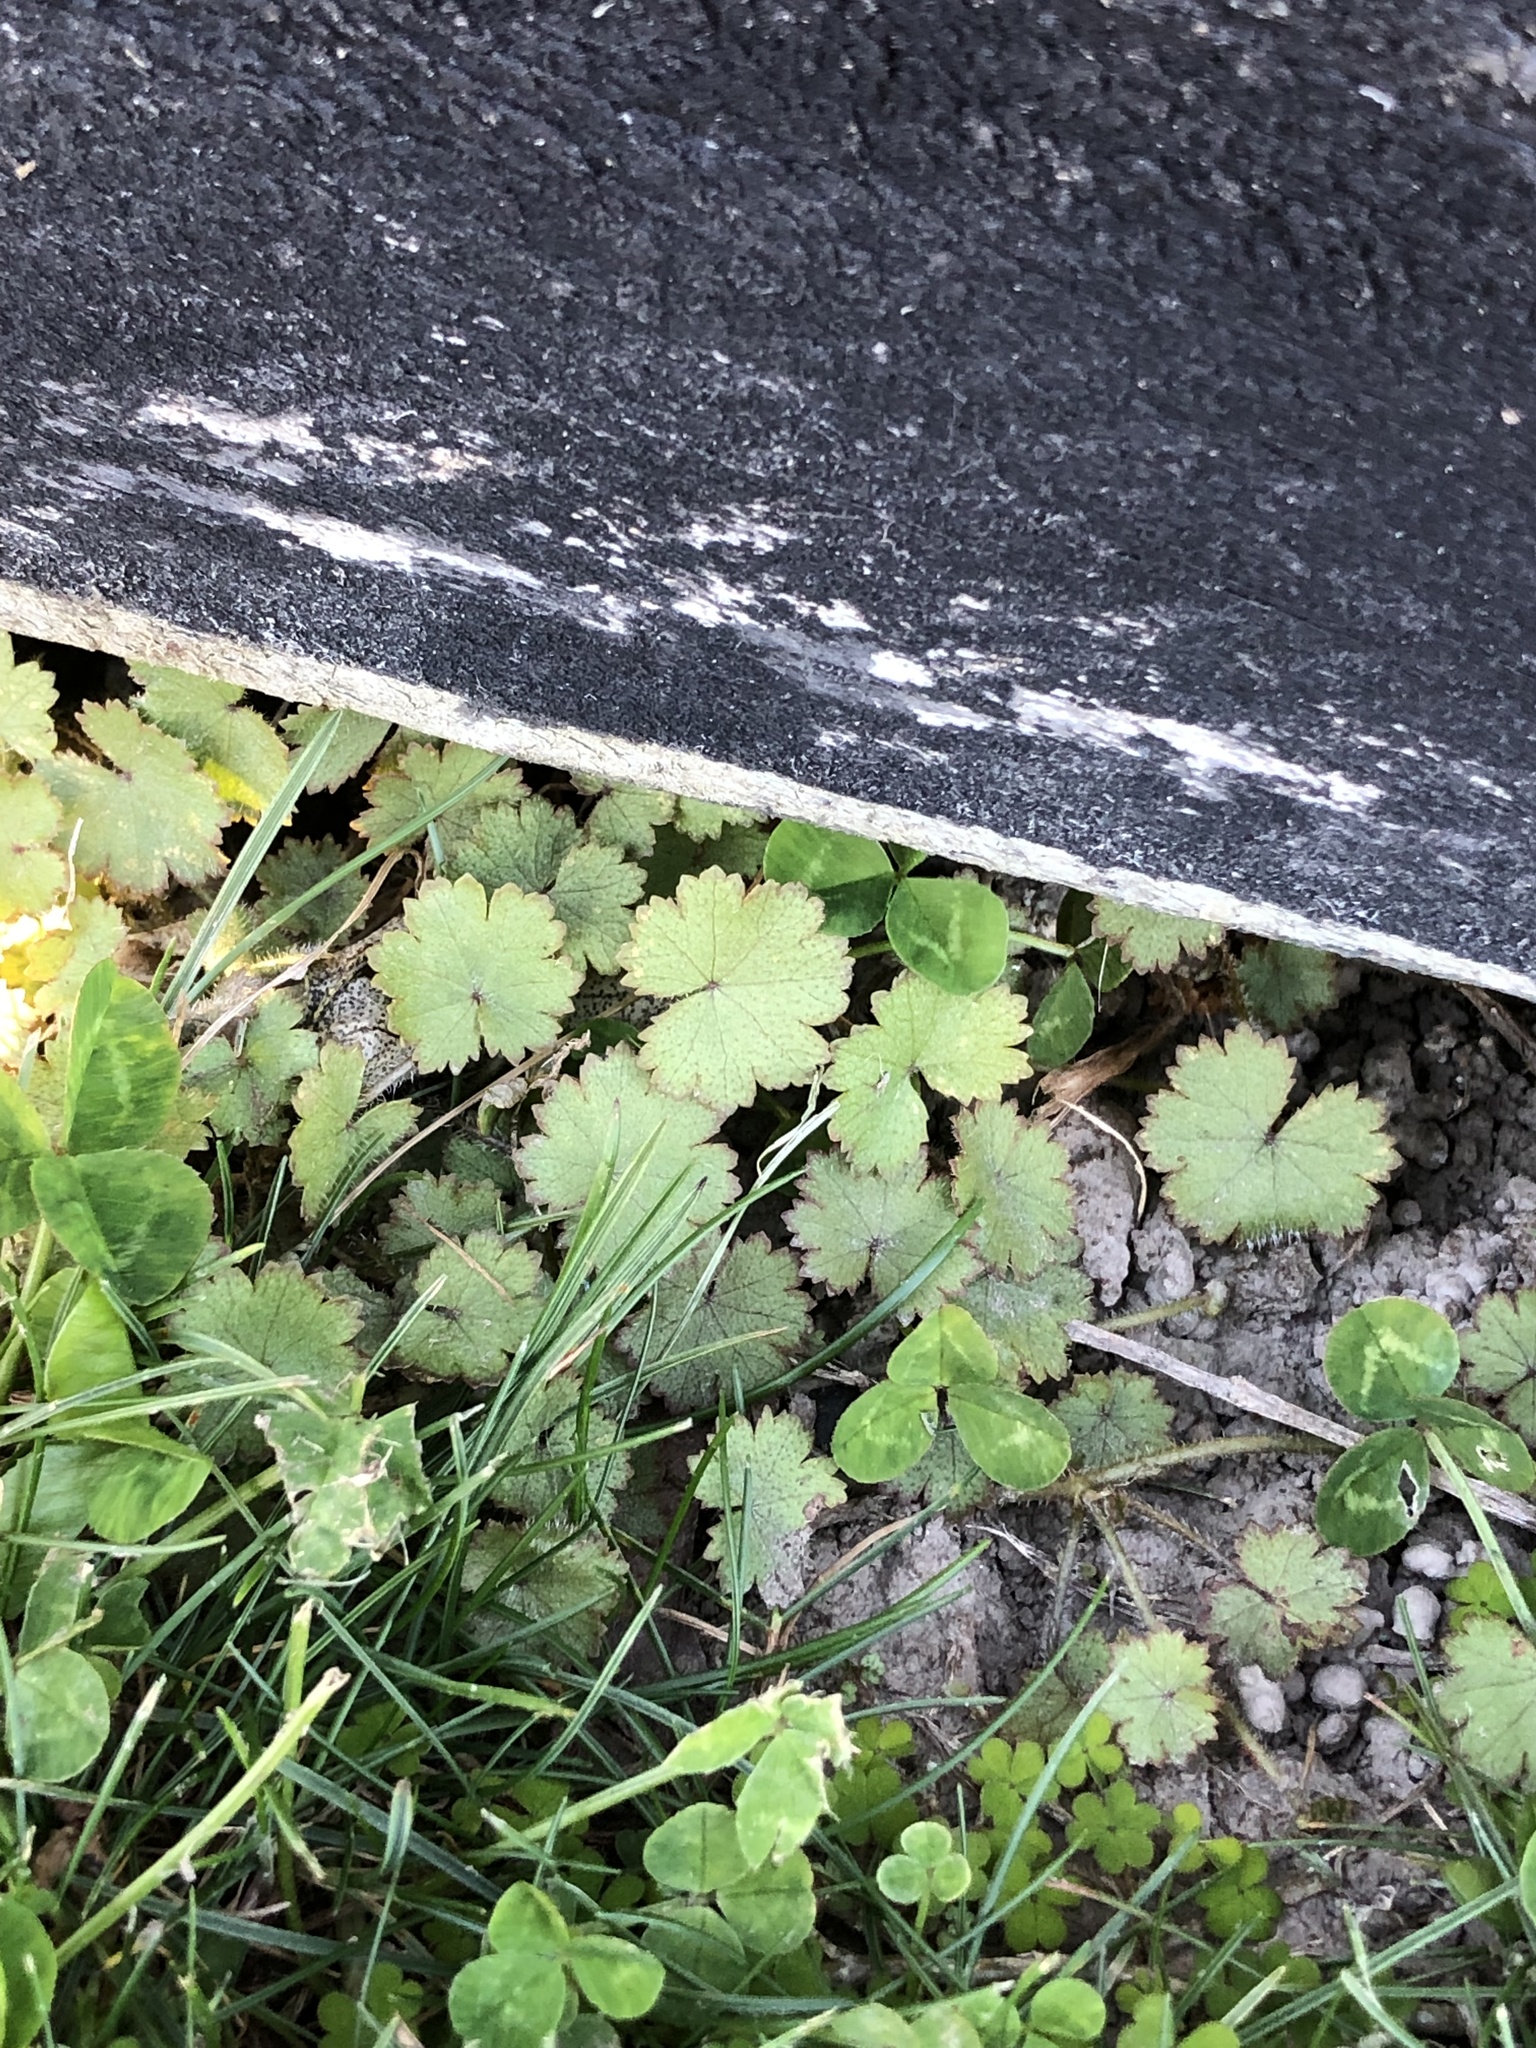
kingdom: Plantae
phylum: Tracheophyta
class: Magnoliopsida
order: Apiales
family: Araliaceae
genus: Hydrocotyle
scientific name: Hydrocotyle moschata
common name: Hairy pennywort
